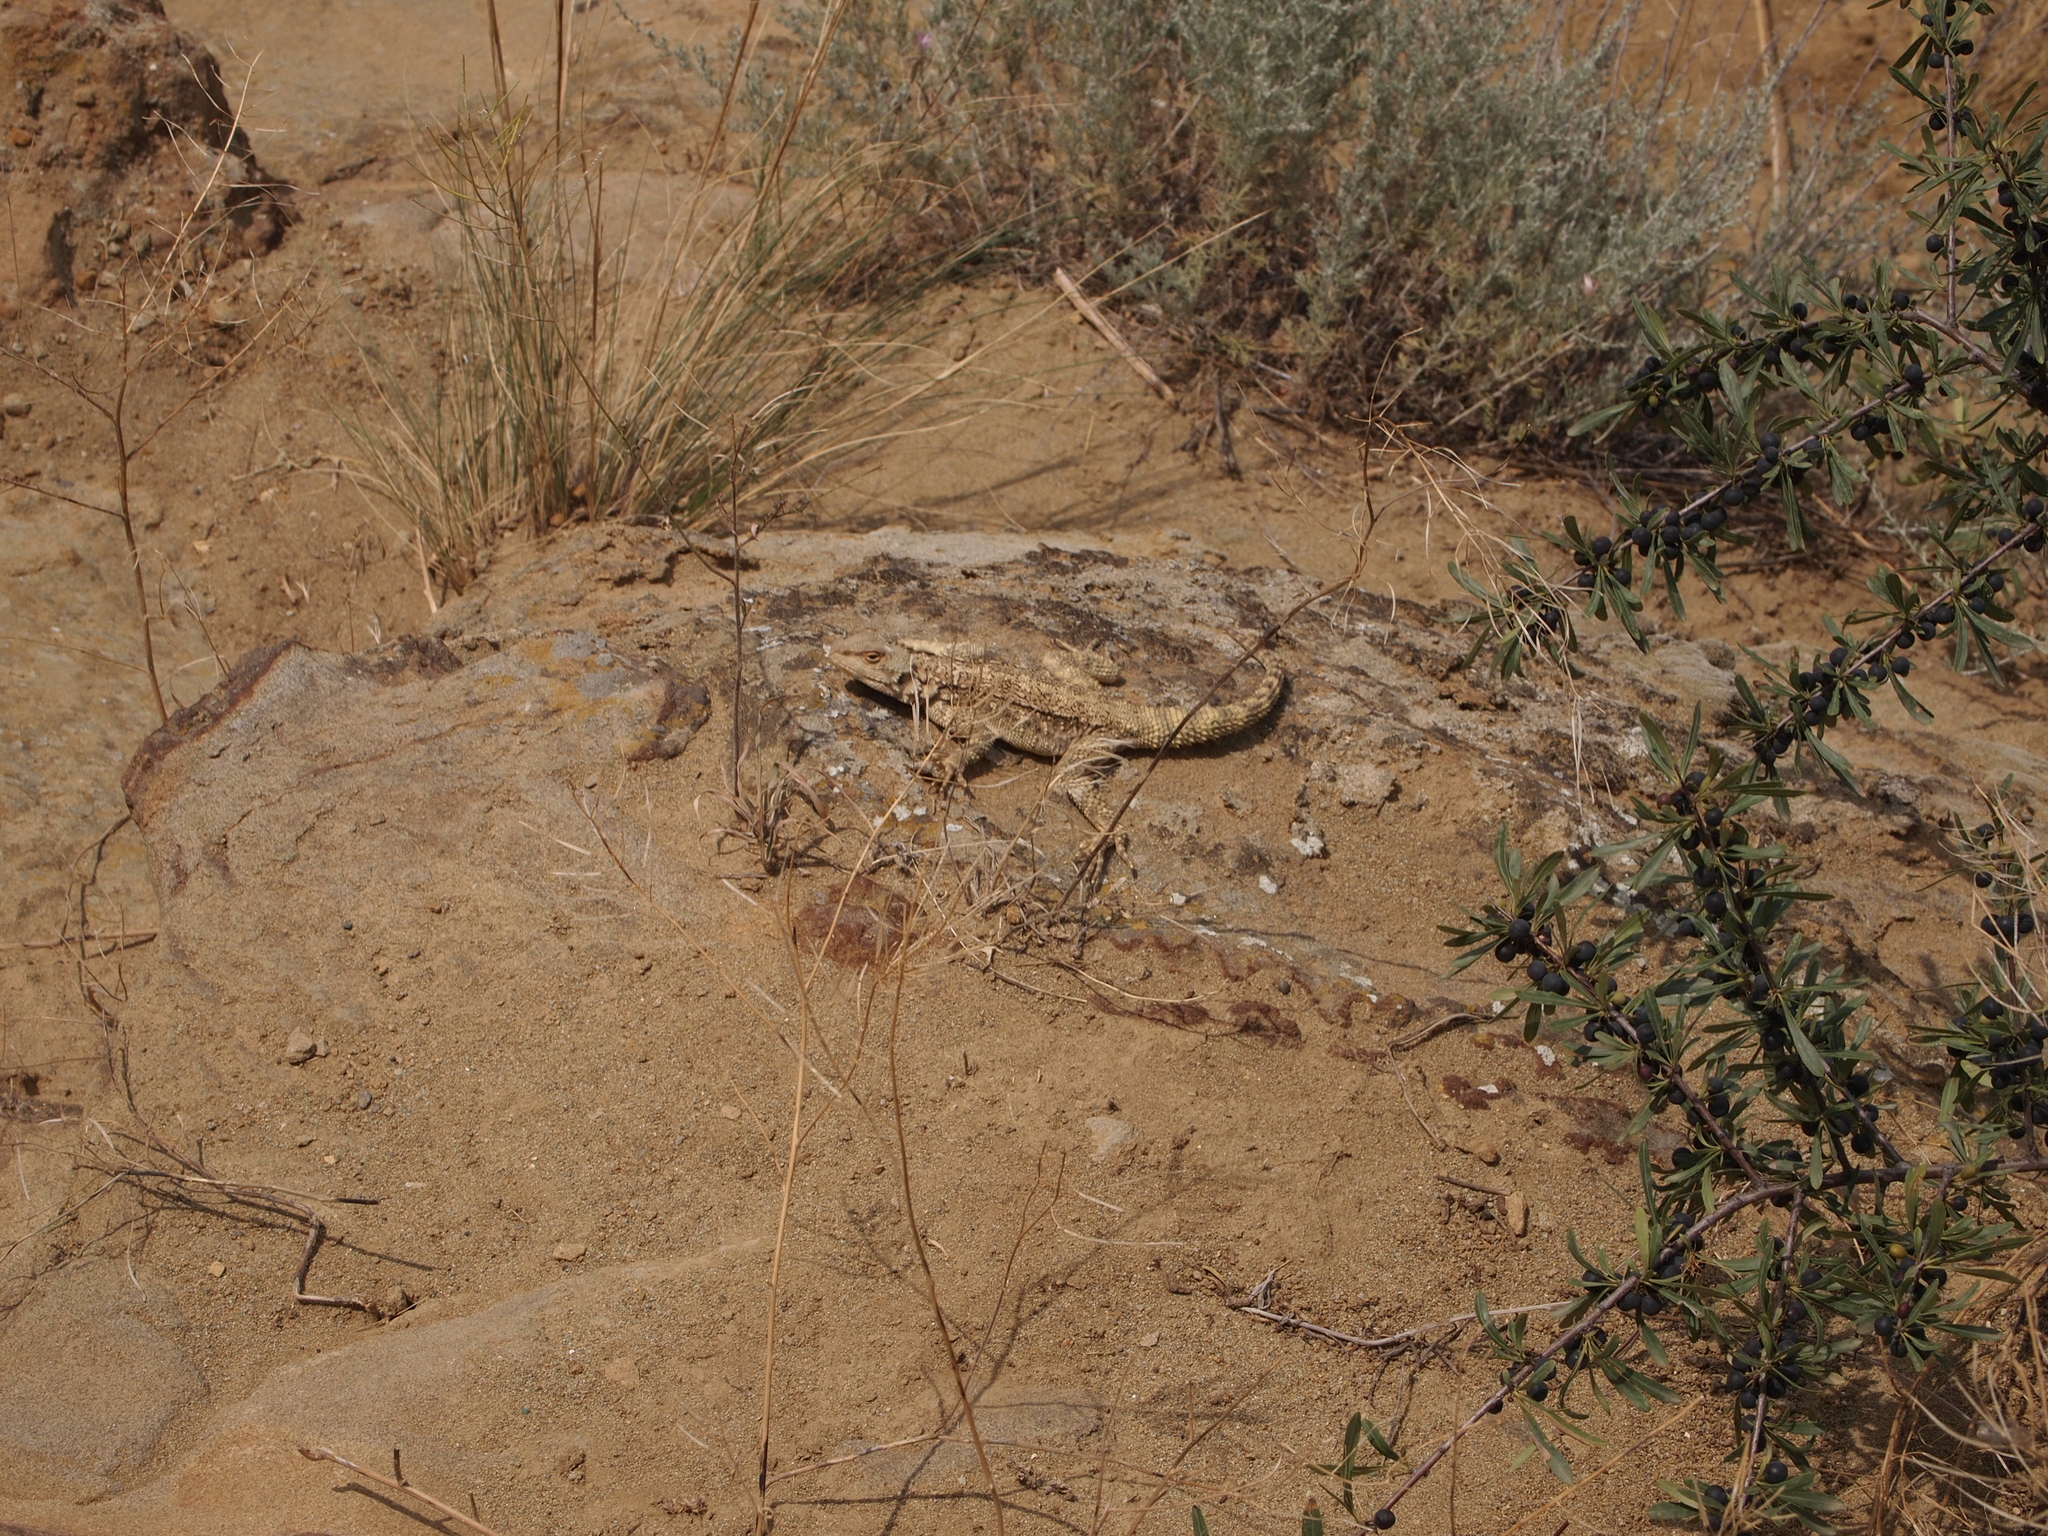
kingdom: Animalia
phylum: Chordata
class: Squamata
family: Agamidae
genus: Paralaudakia
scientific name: Paralaudakia caucasia
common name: Caucasian agama
